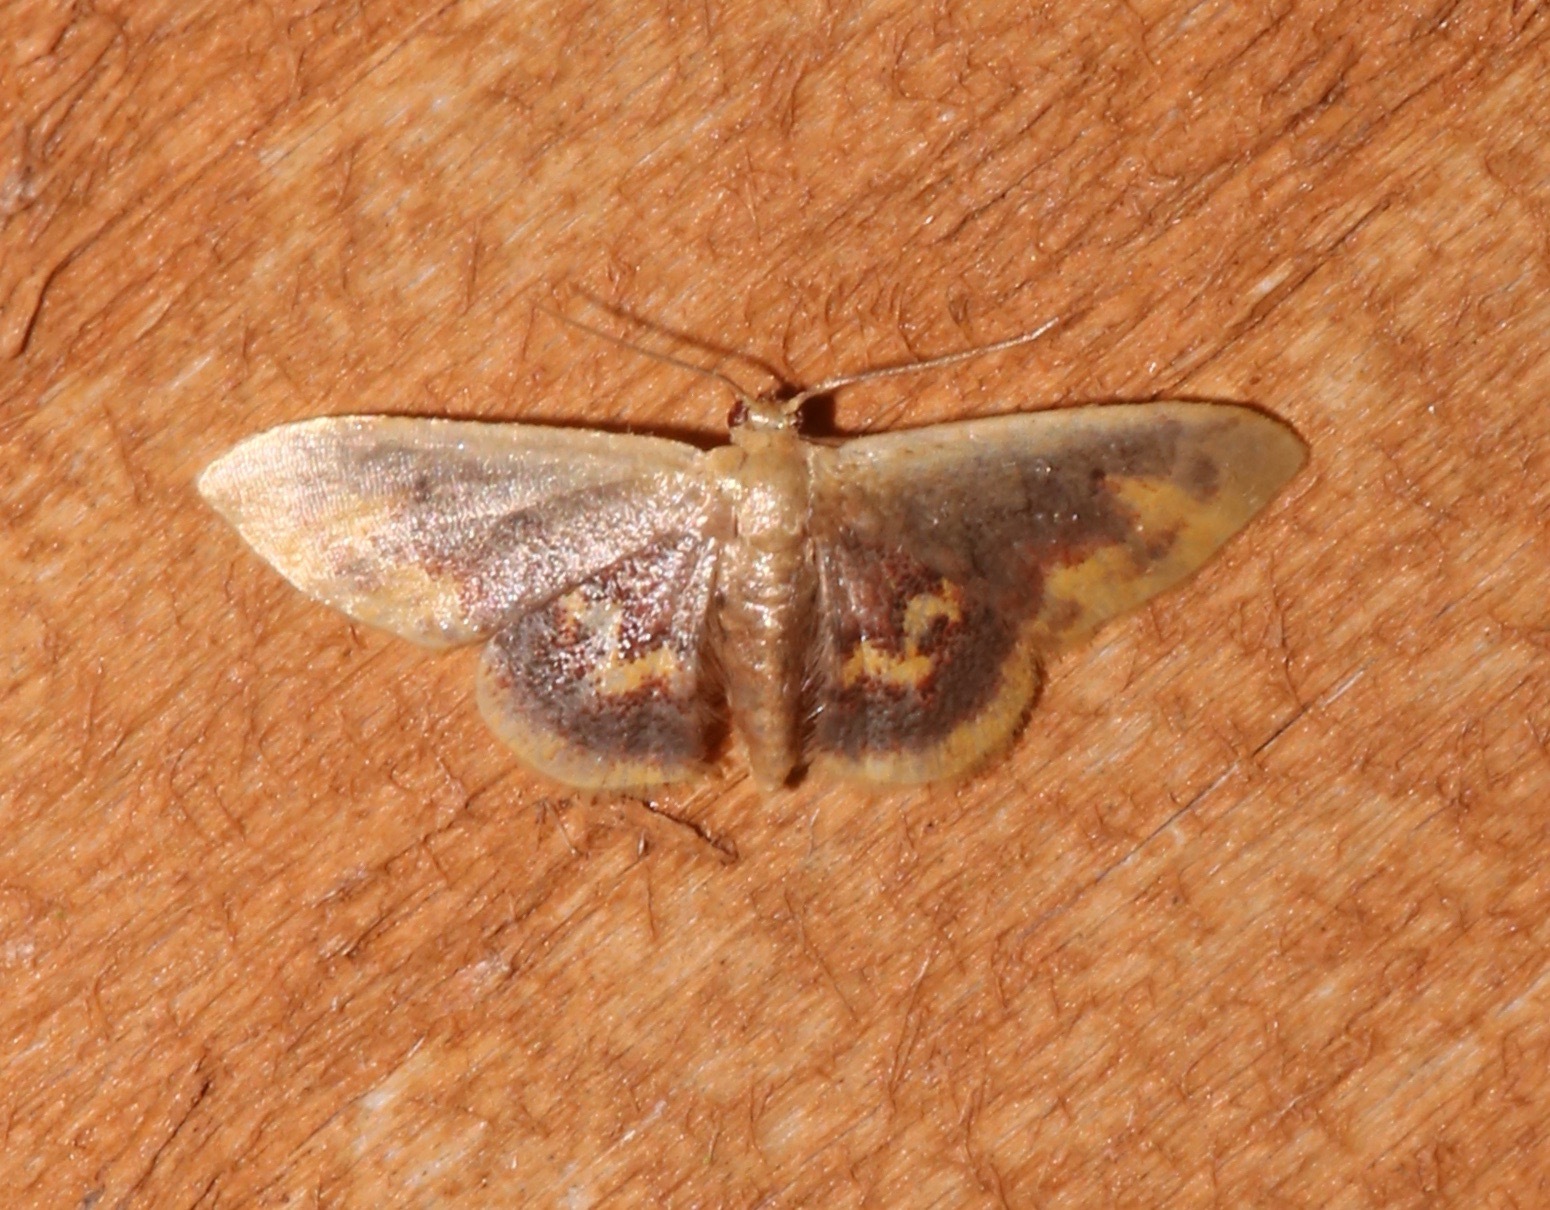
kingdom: Animalia
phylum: Arthropoda
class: Insecta
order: Lepidoptera
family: Geometridae
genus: Idaea
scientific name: Idaea scintillularia
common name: Diminutive wave
